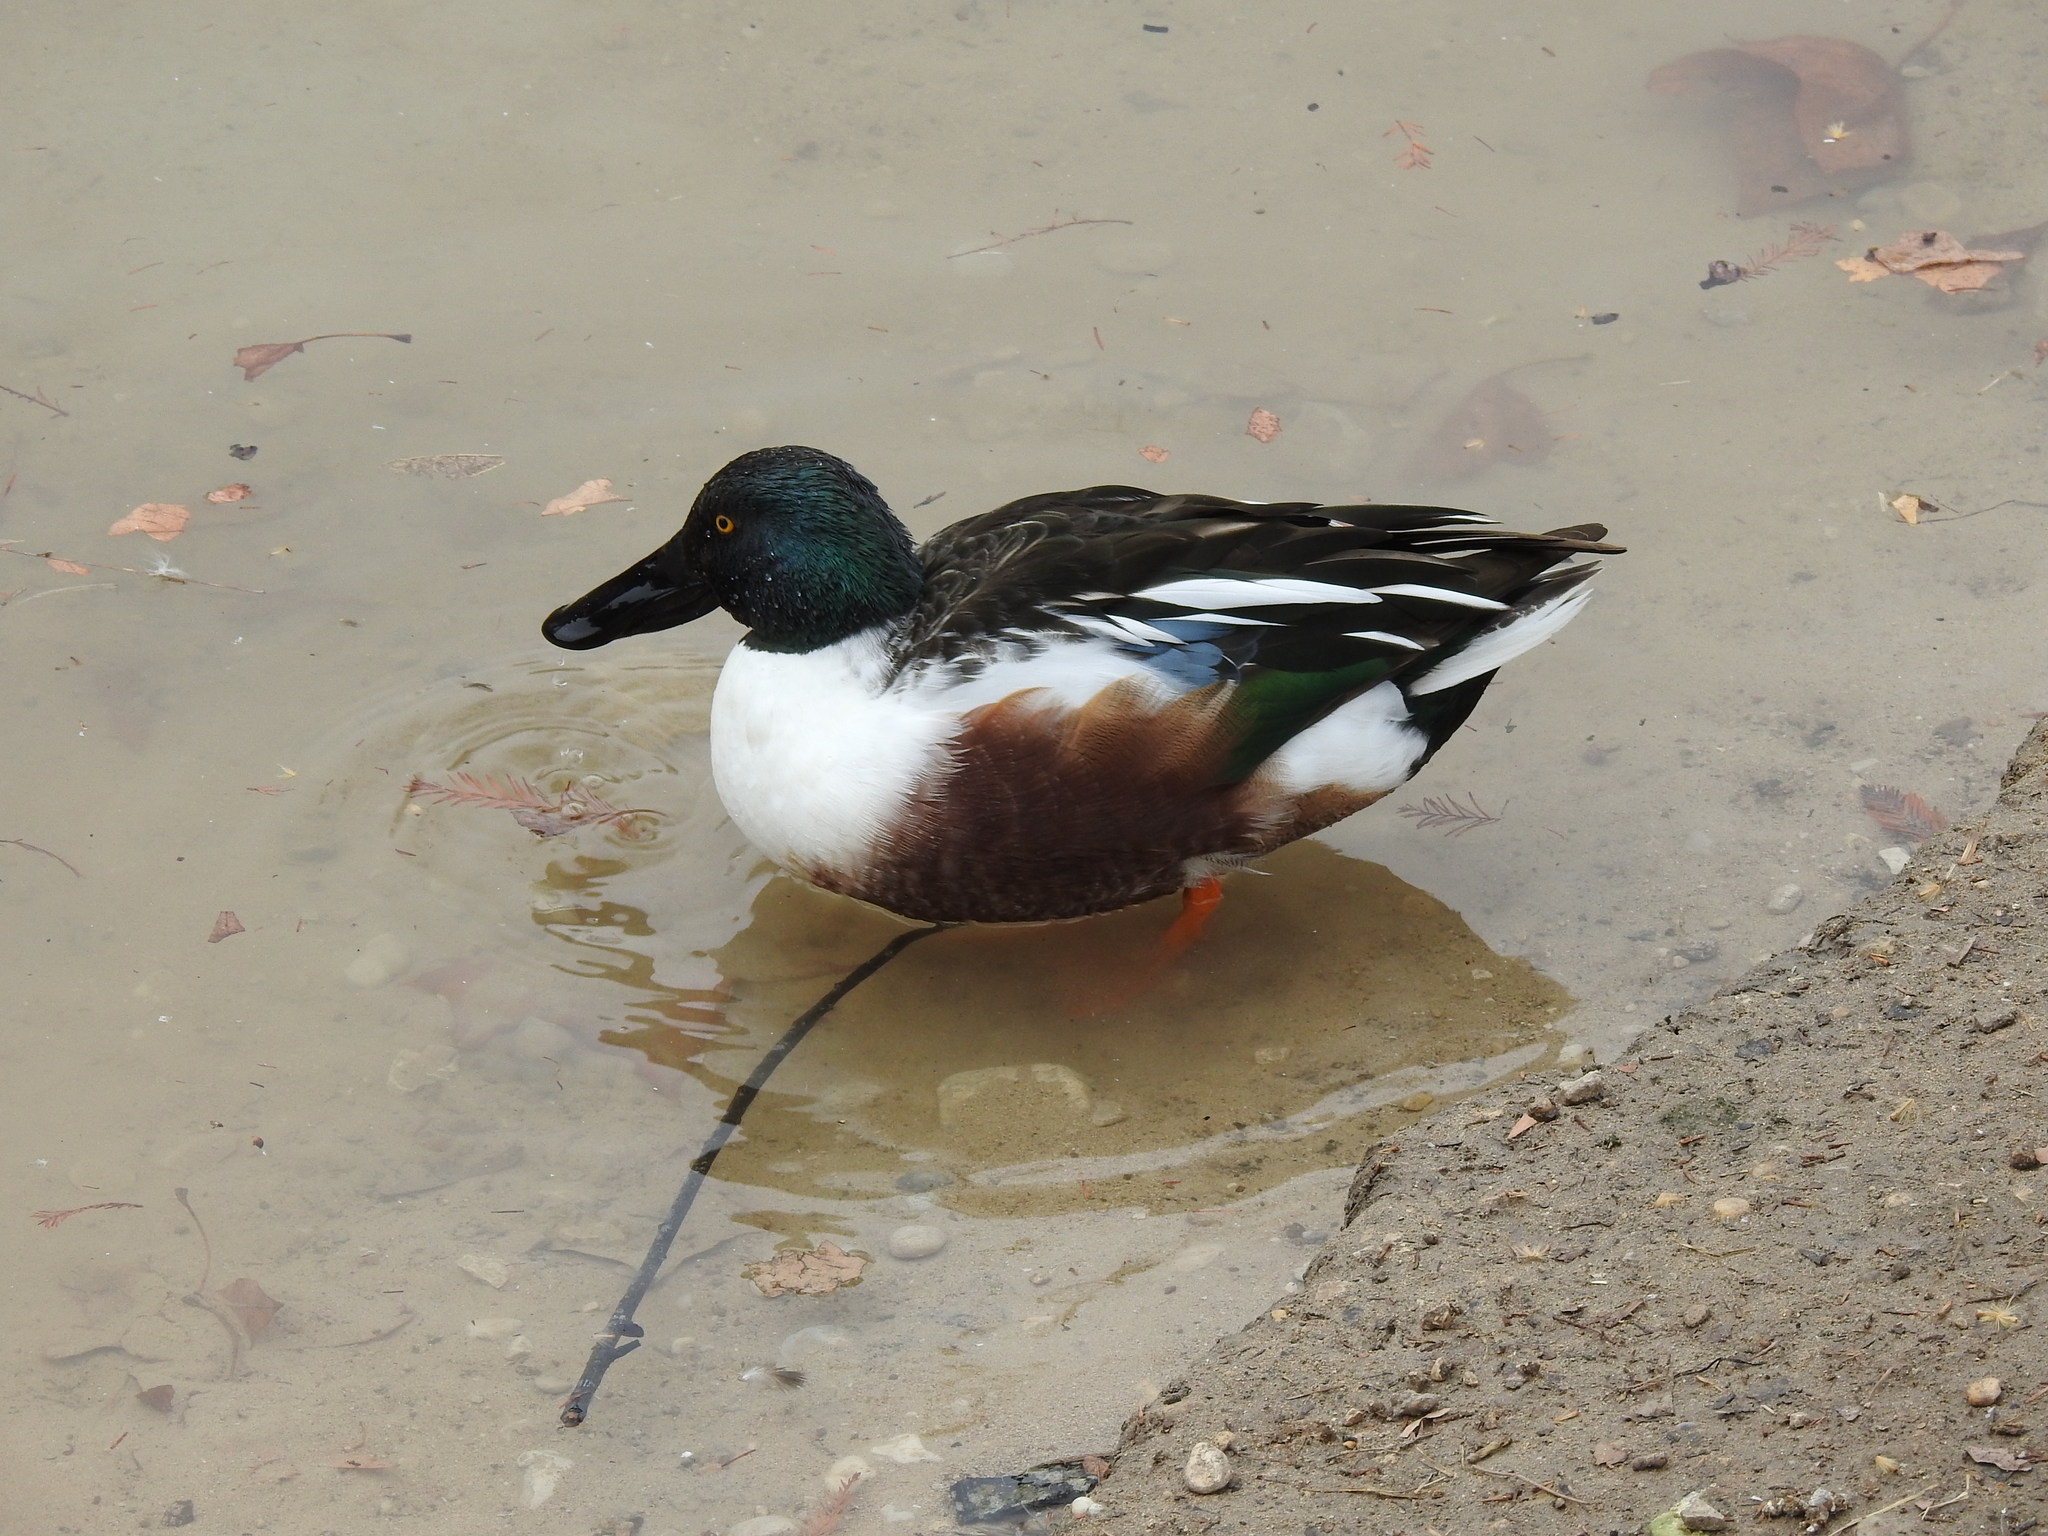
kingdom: Animalia
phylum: Chordata
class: Aves
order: Anseriformes
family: Anatidae
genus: Spatula
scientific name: Spatula clypeata
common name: Northern shoveler
